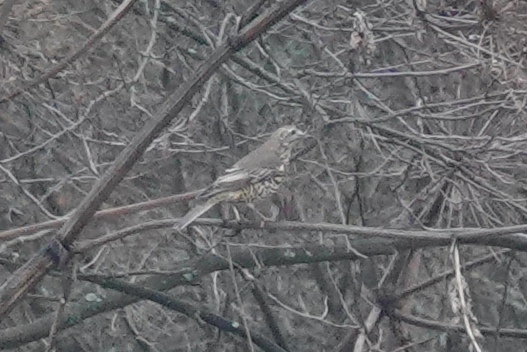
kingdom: Animalia
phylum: Chordata
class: Aves
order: Passeriformes
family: Turdidae
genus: Turdus
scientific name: Turdus viscivorus
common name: Mistle thrush
